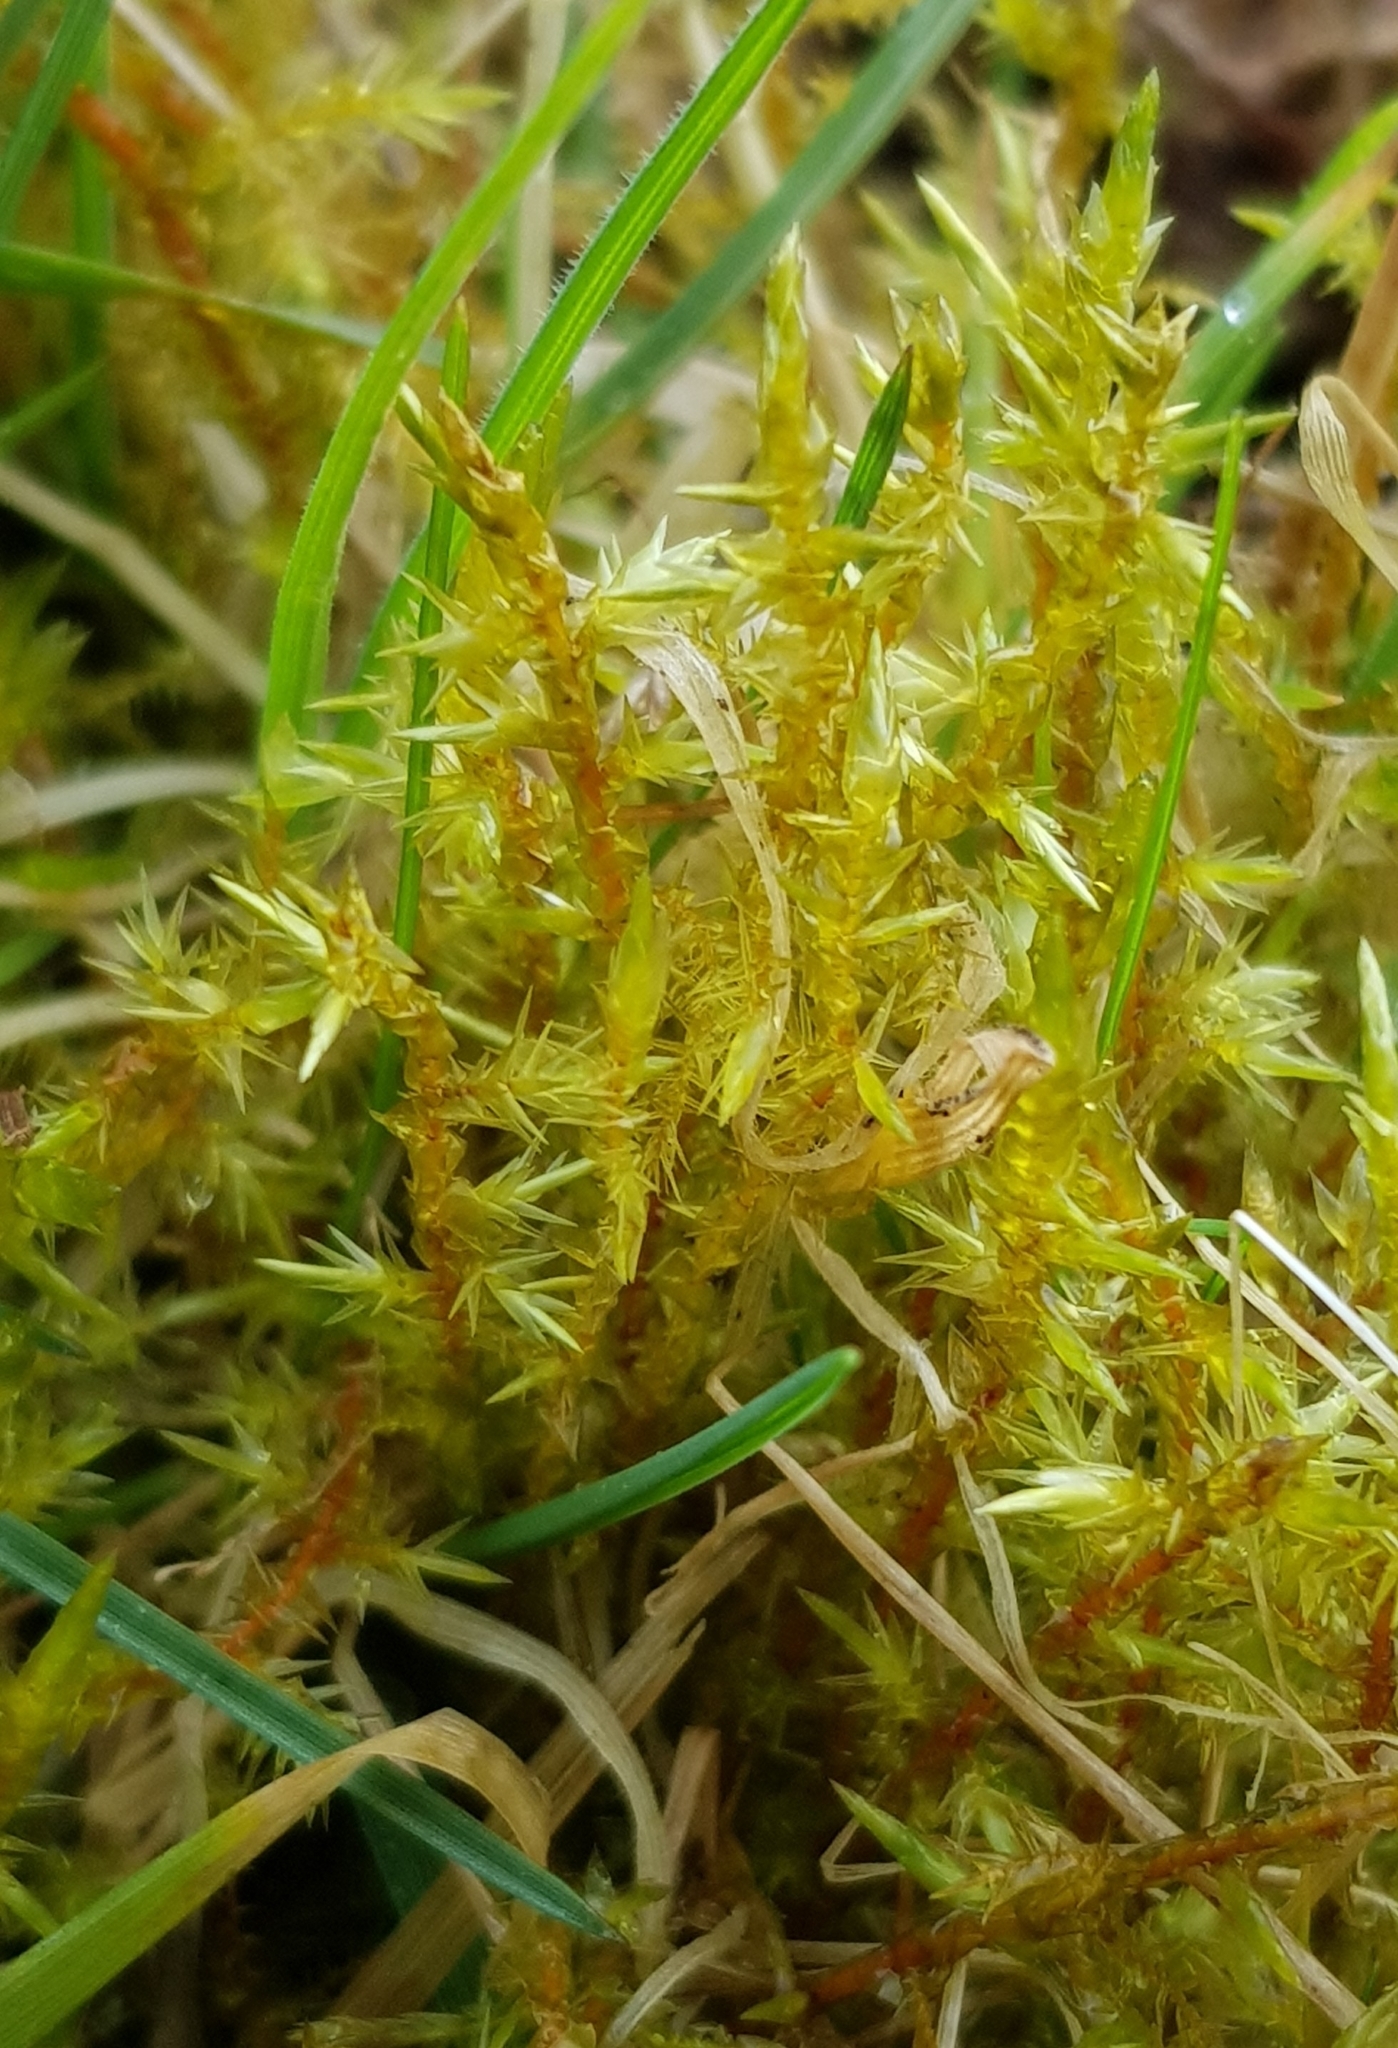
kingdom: Plantae
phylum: Bryophyta
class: Bryopsida
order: Hypnales
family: Pylaisiaceae
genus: Calliergonella
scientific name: Calliergonella cuspidata
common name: Common large wetland moss
